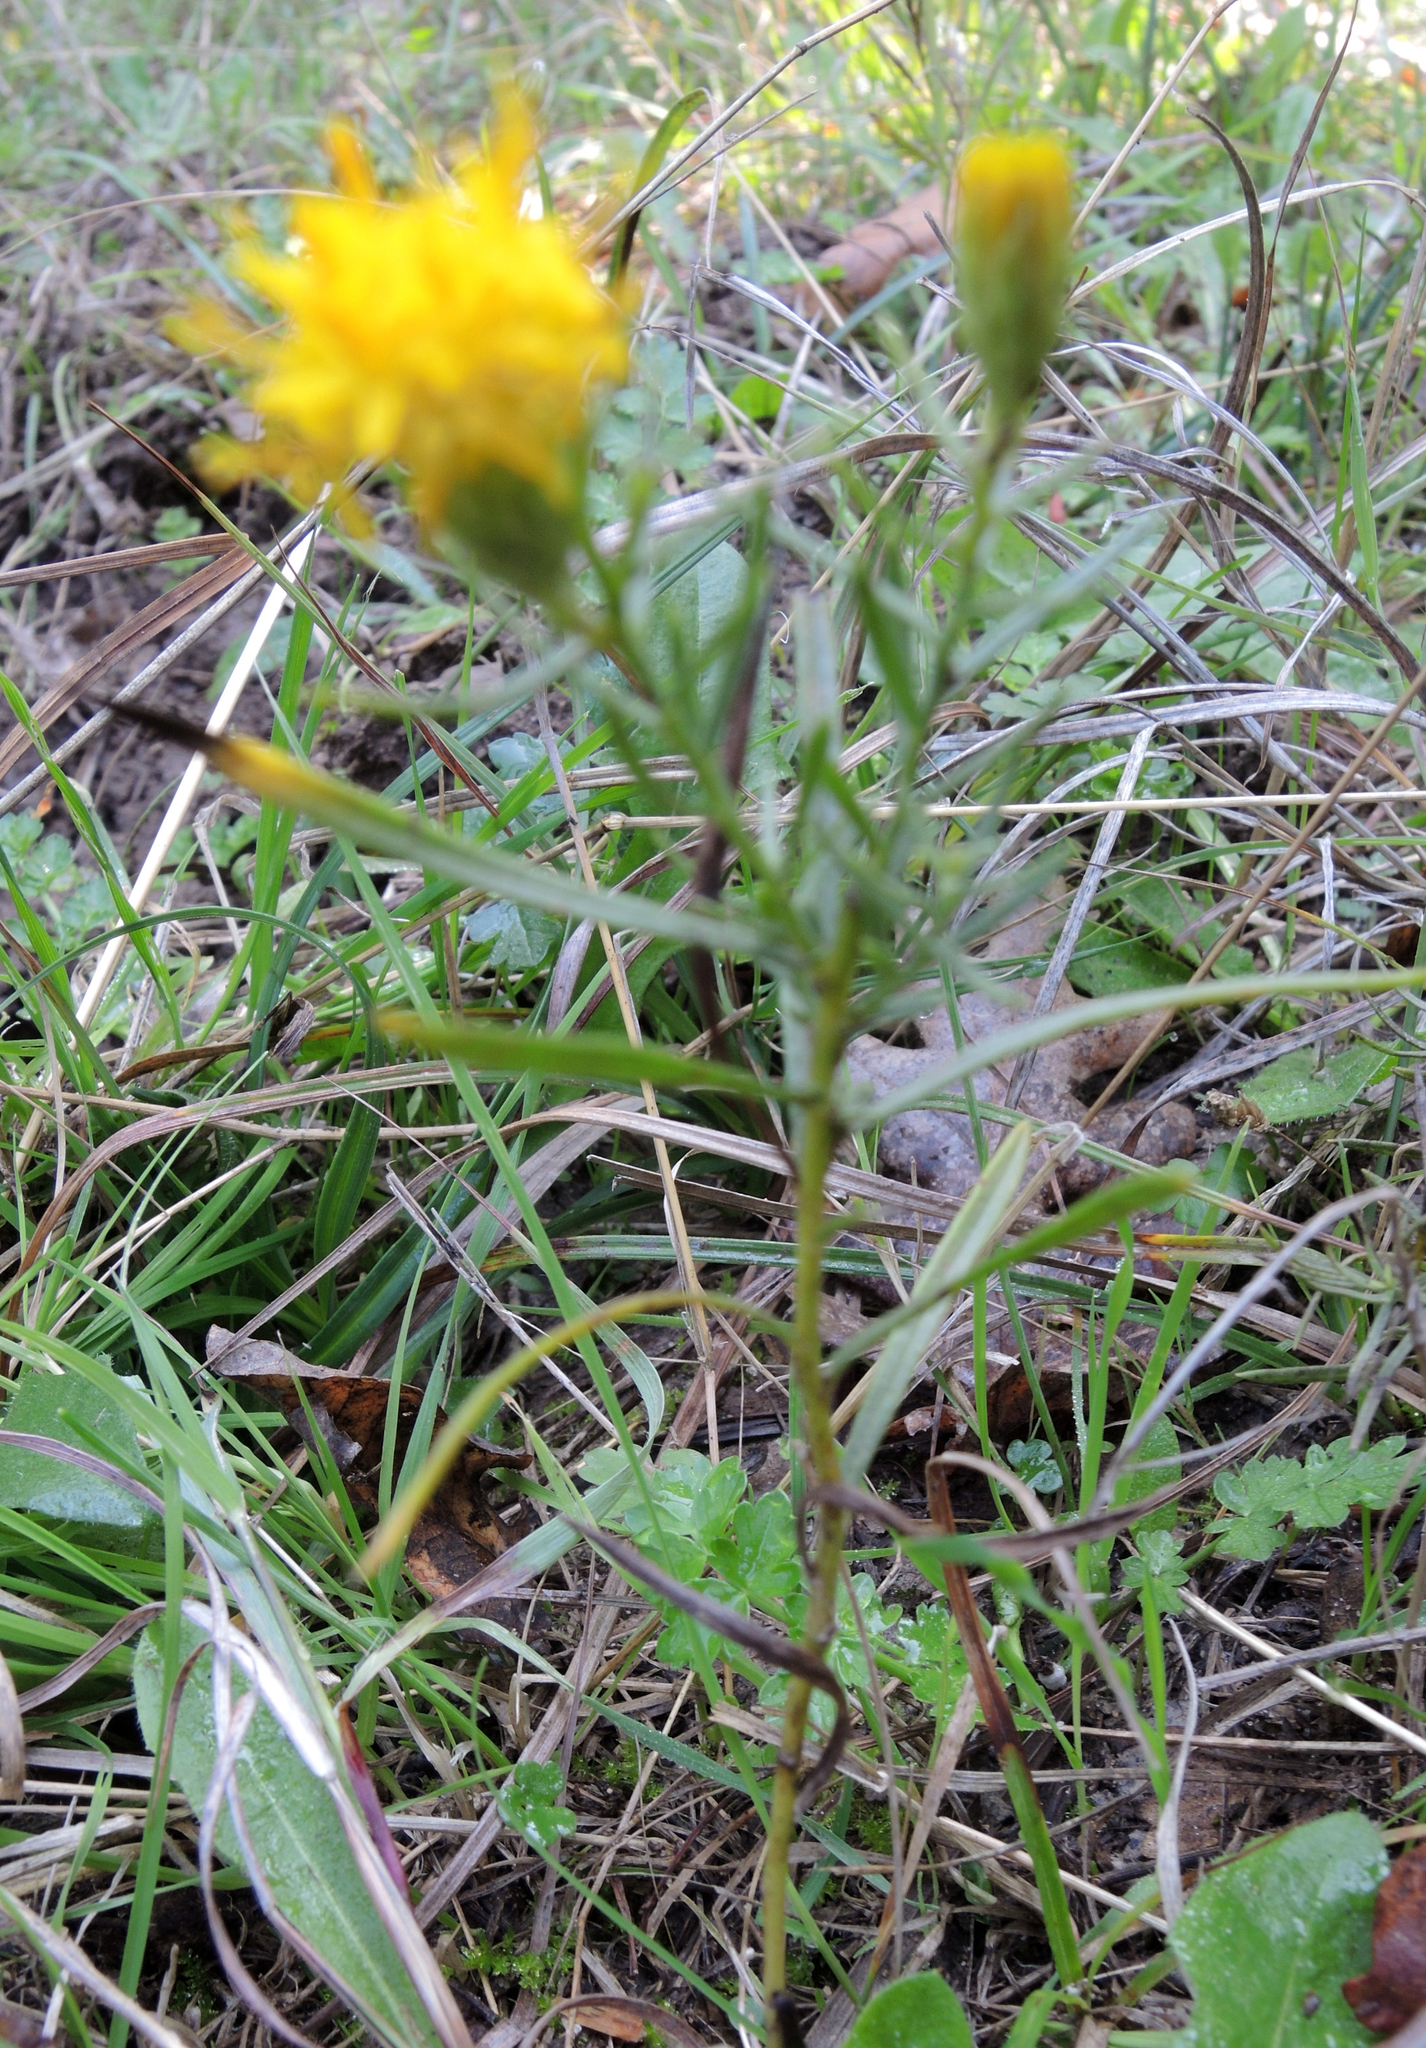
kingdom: Plantae
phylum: Tracheophyta
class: Magnoliopsida
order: Asterales
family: Asteraceae
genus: Galatella
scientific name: Galatella linosyris
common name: Goldilocks aster
